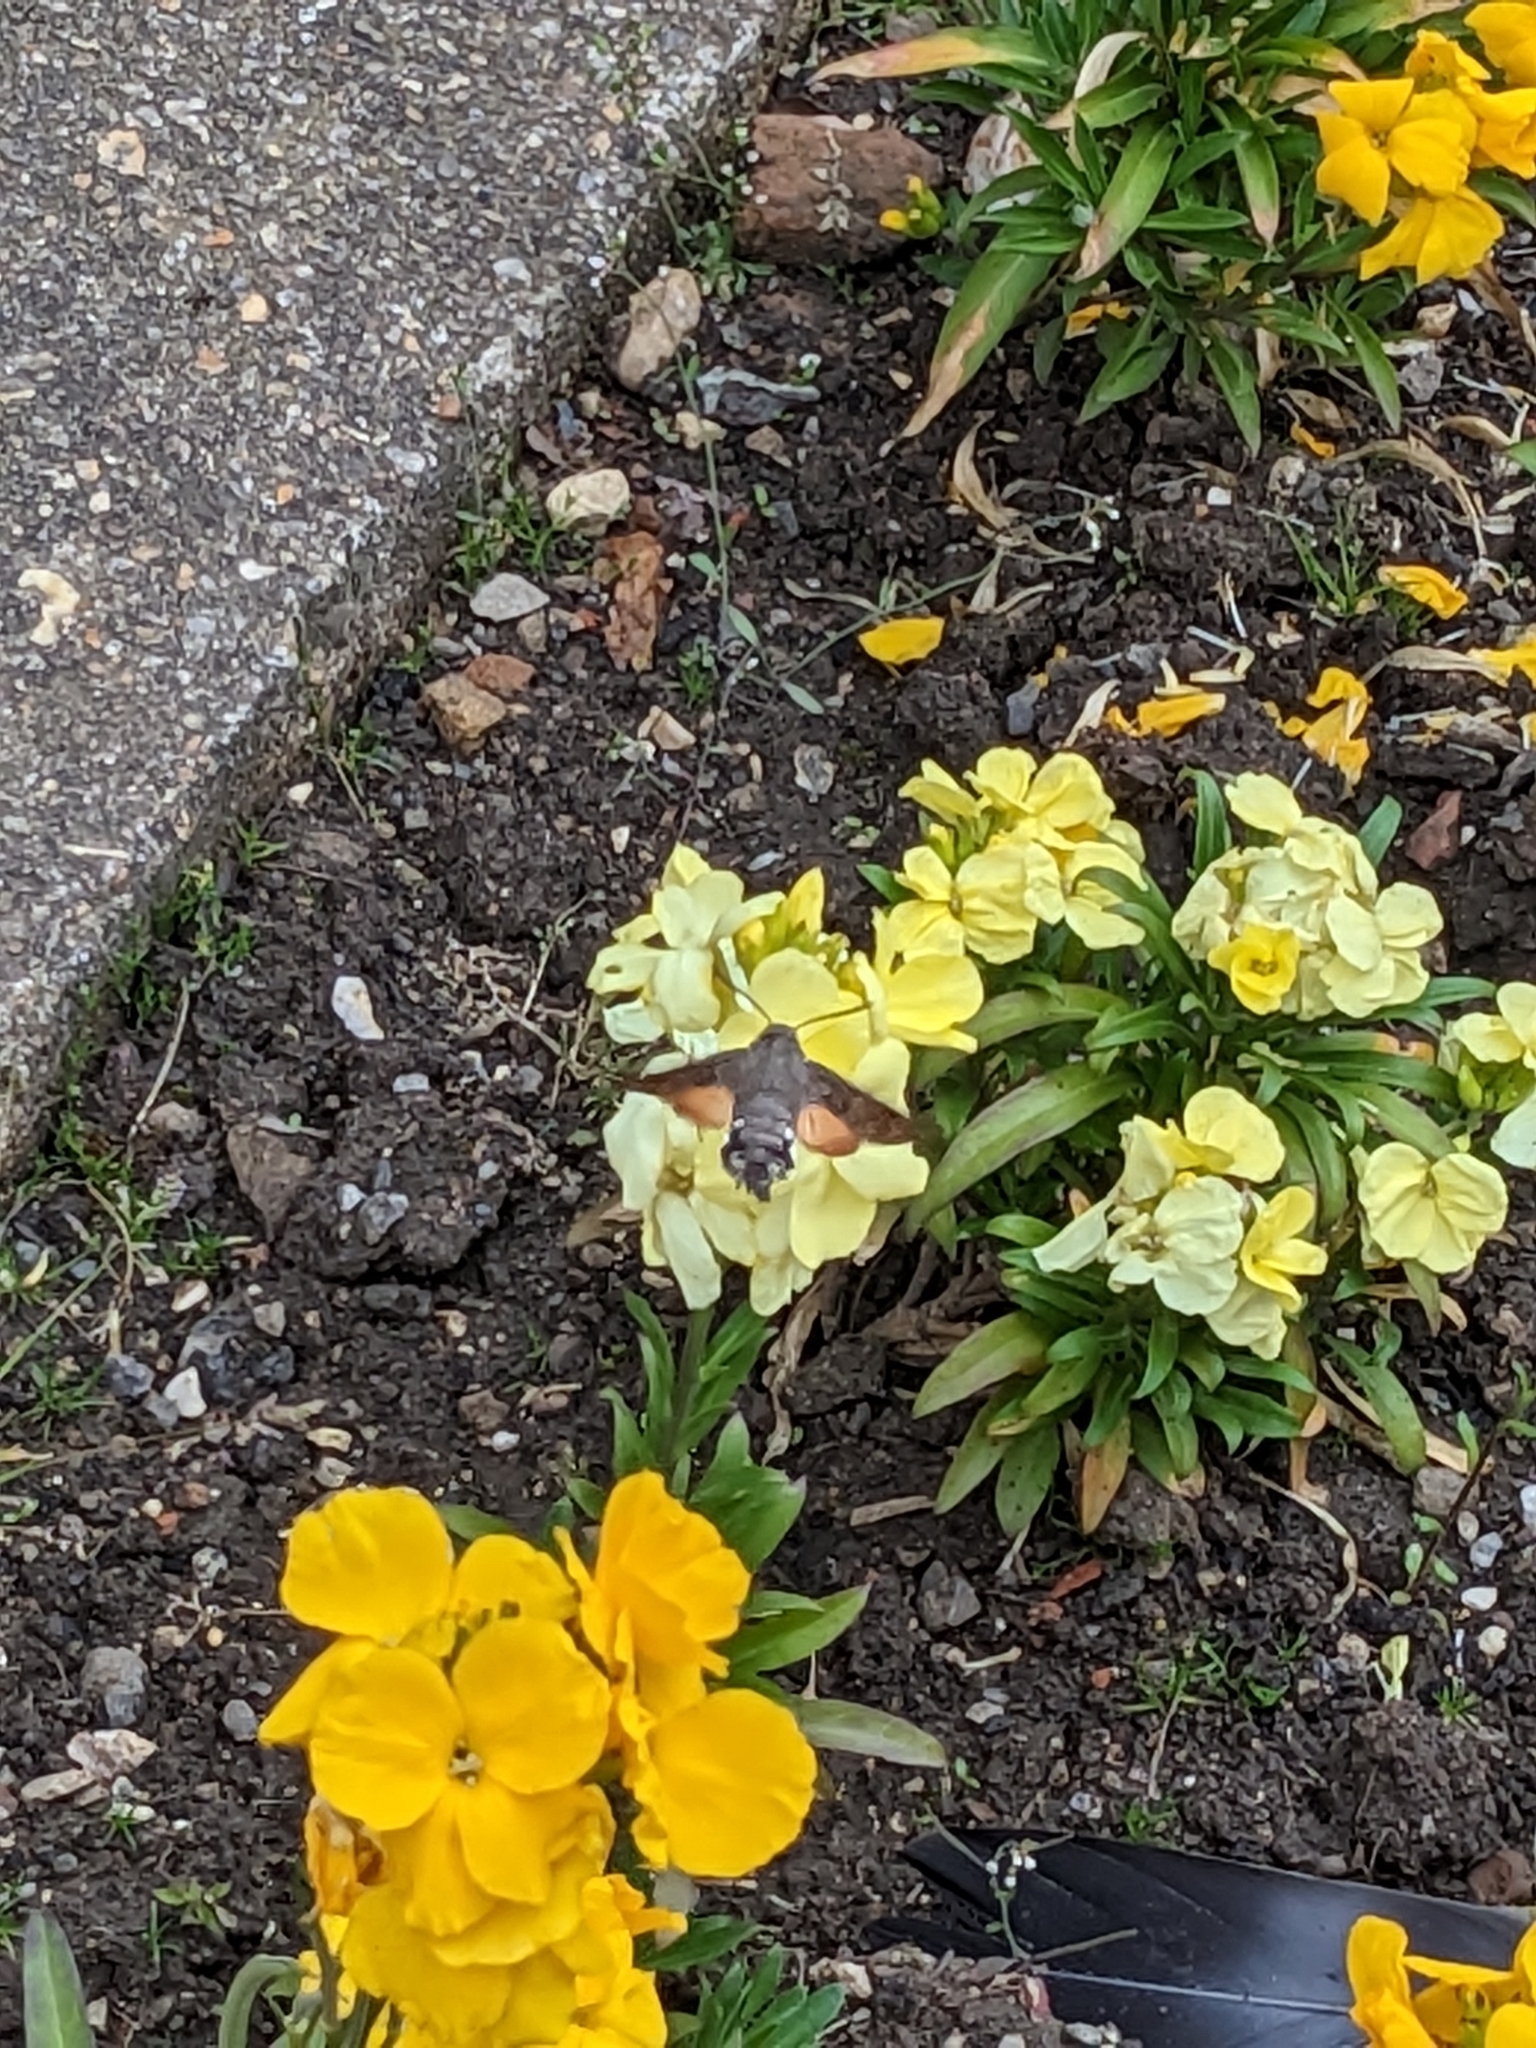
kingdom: Animalia
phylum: Arthropoda
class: Insecta
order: Lepidoptera
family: Sphingidae
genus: Macroglossum
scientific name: Macroglossum stellatarum
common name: Humming-bird hawk-moth
